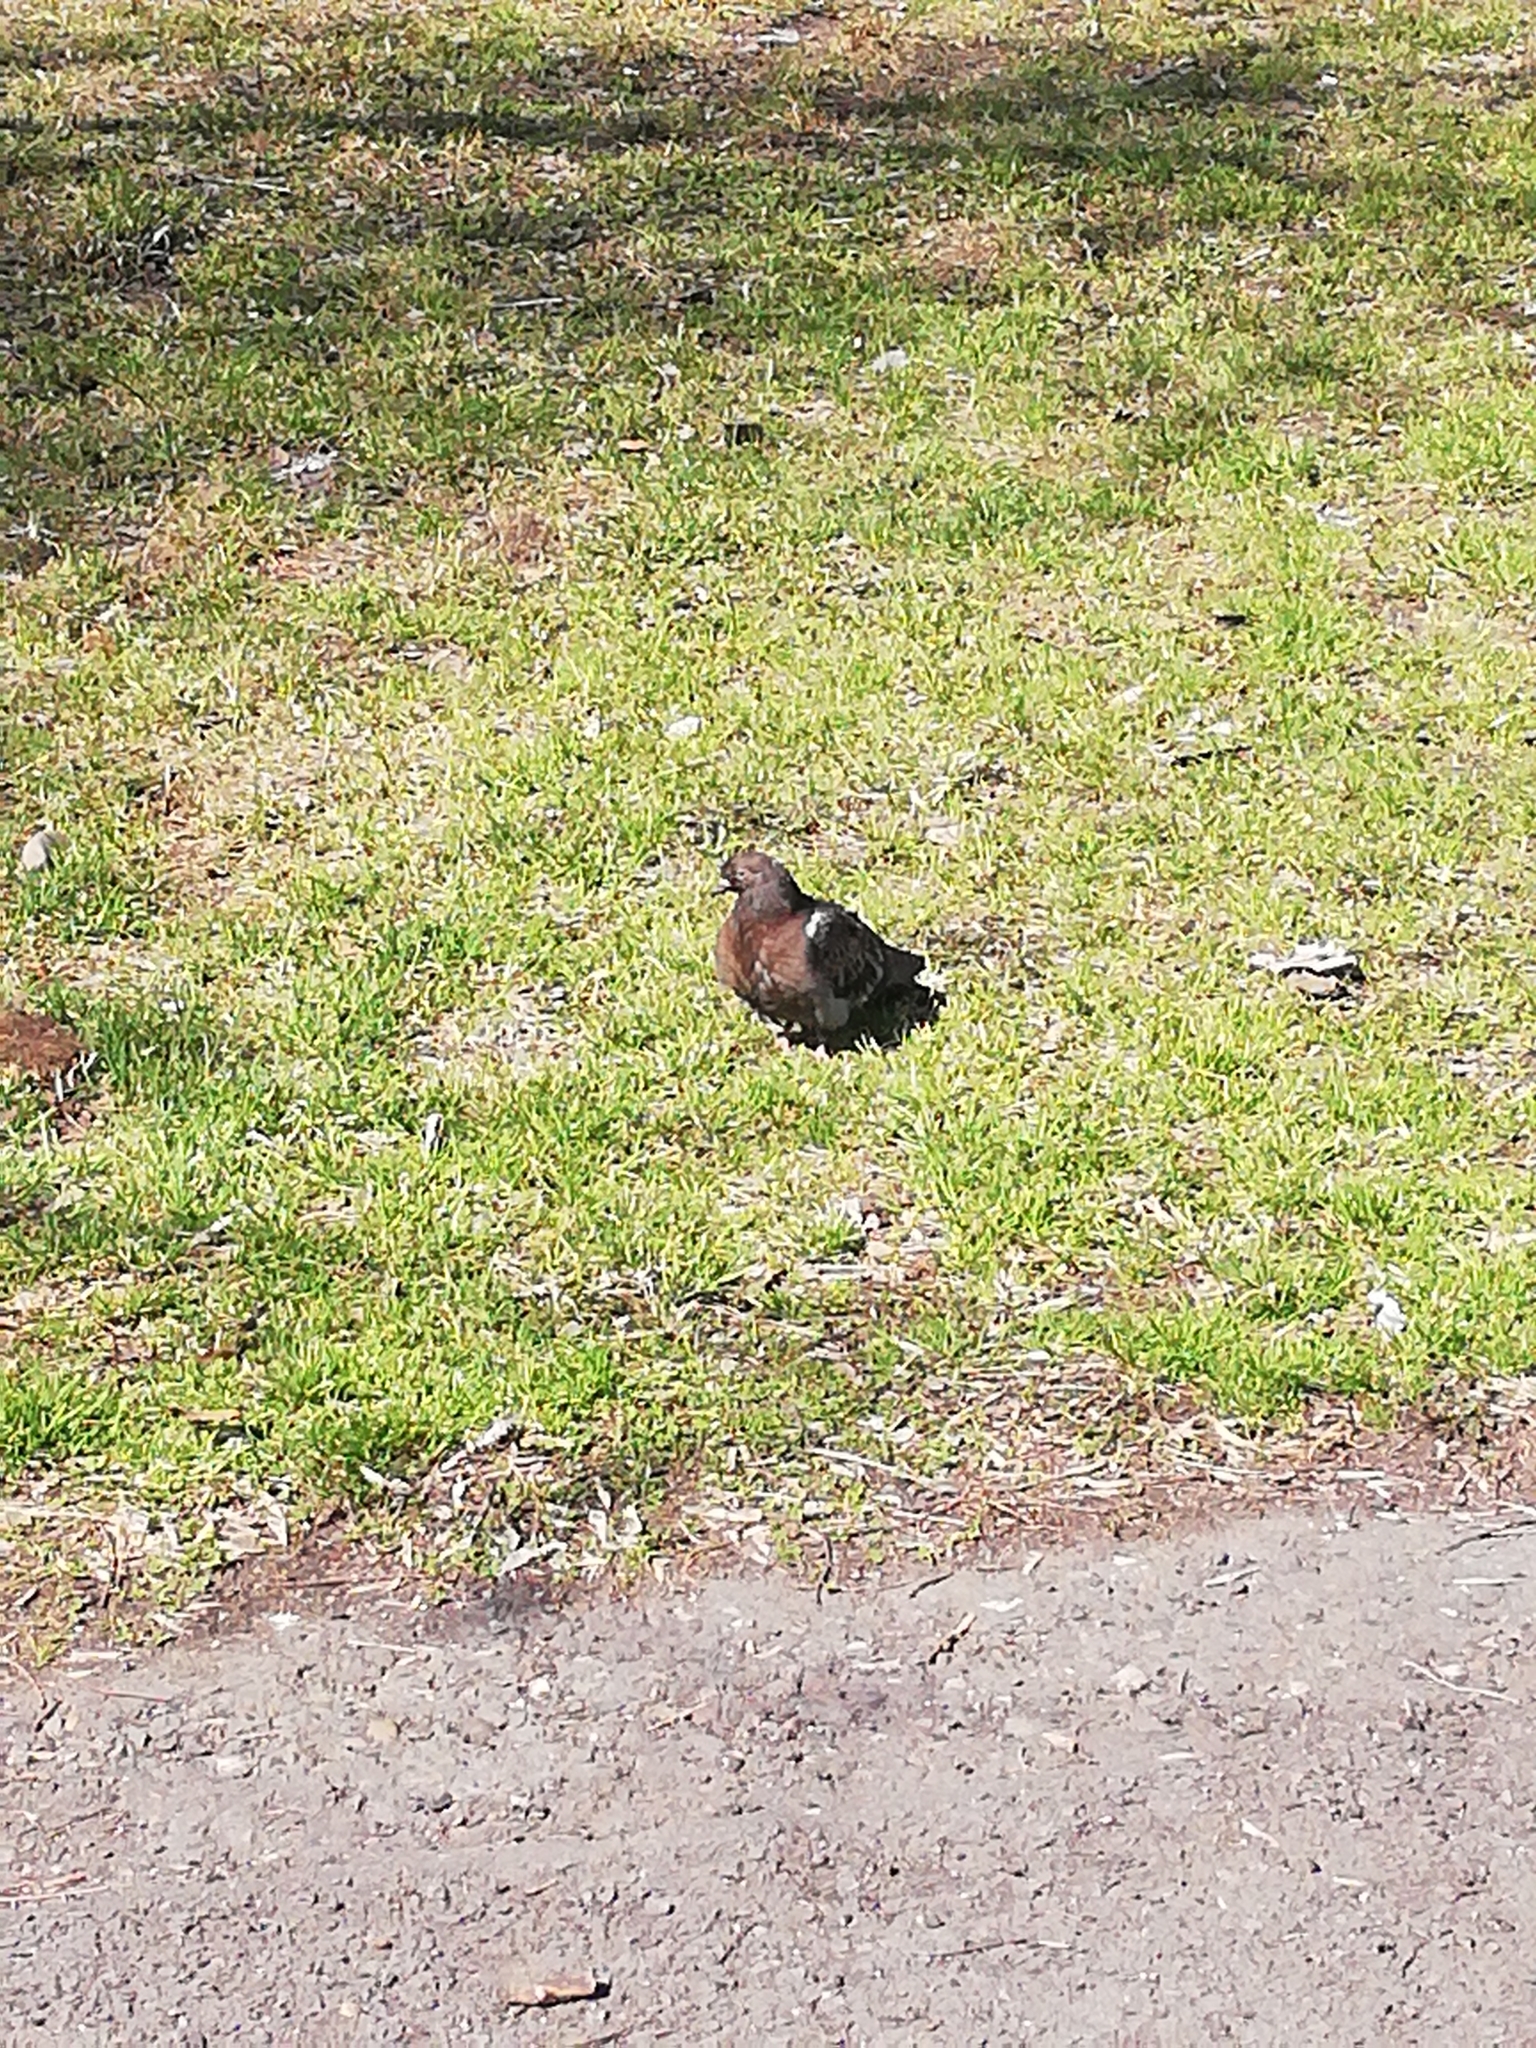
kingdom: Animalia
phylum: Chordata
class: Aves
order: Columbiformes
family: Columbidae
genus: Columba
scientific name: Columba livia
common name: Rock pigeon
